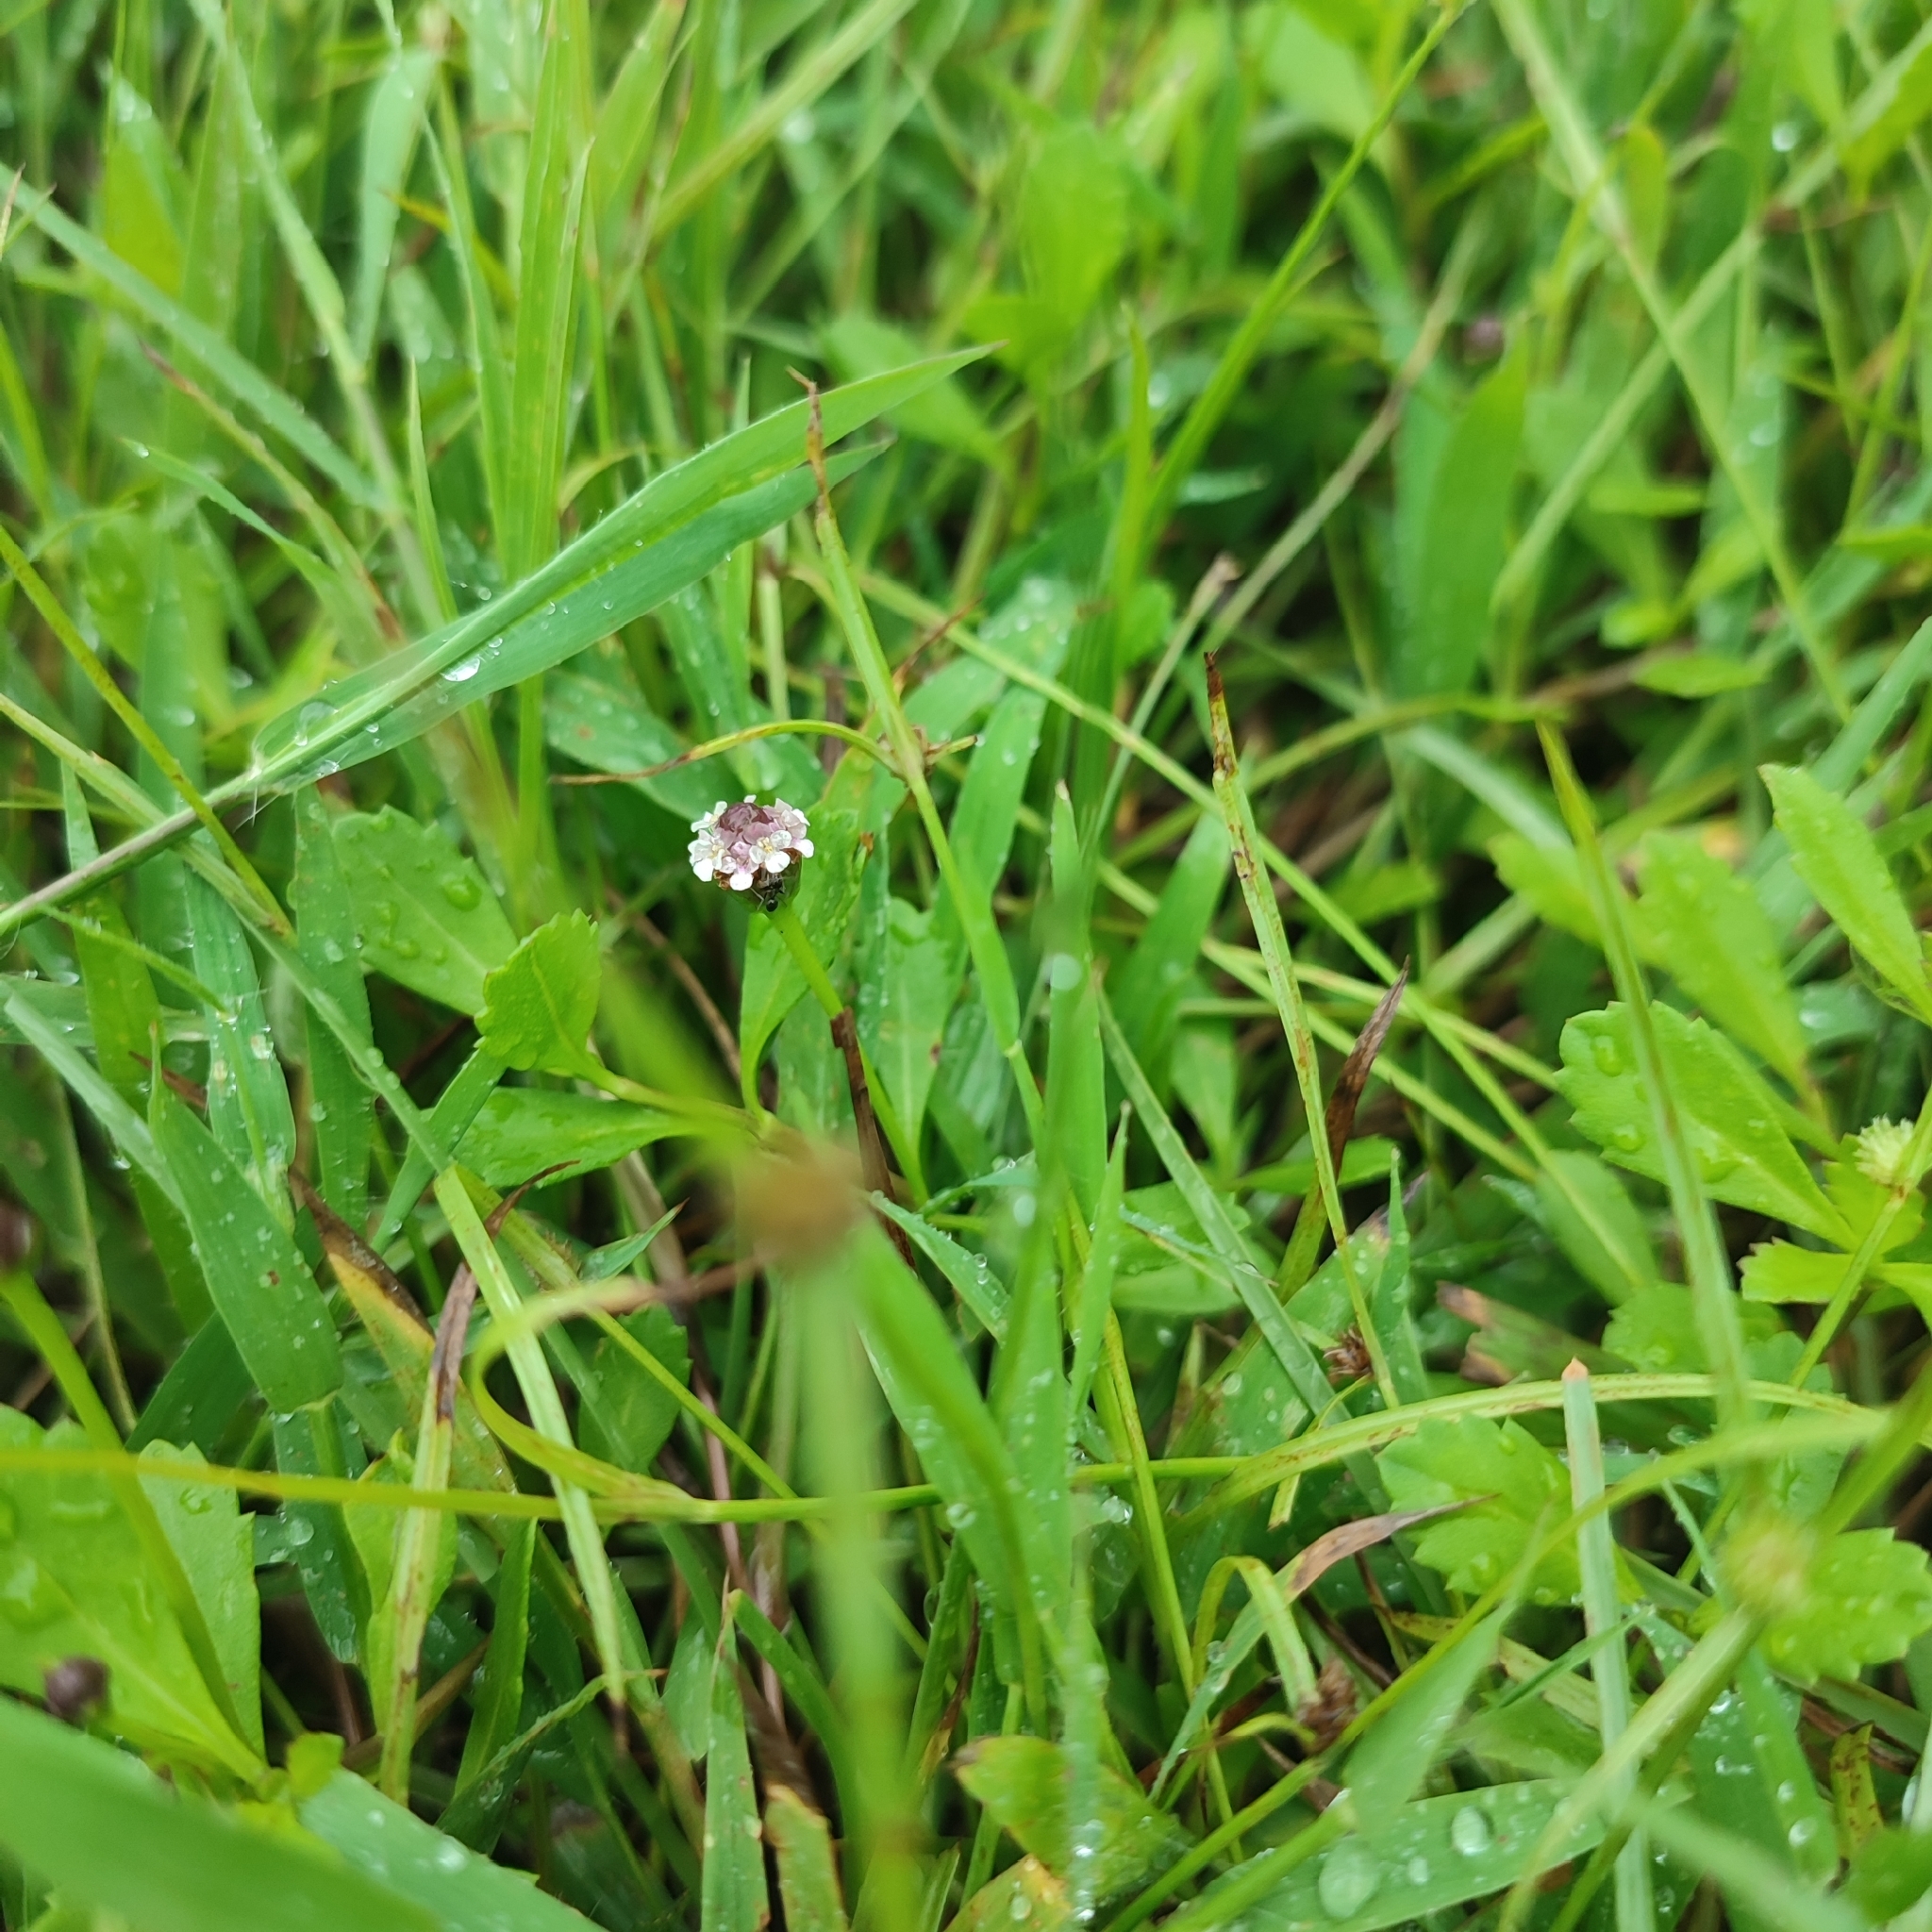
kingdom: Plantae
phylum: Tracheophyta
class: Magnoliopsida
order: Lamiales
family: Verbenaceae
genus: Phyla
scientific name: Phyla nodiflora
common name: Frogfruit
